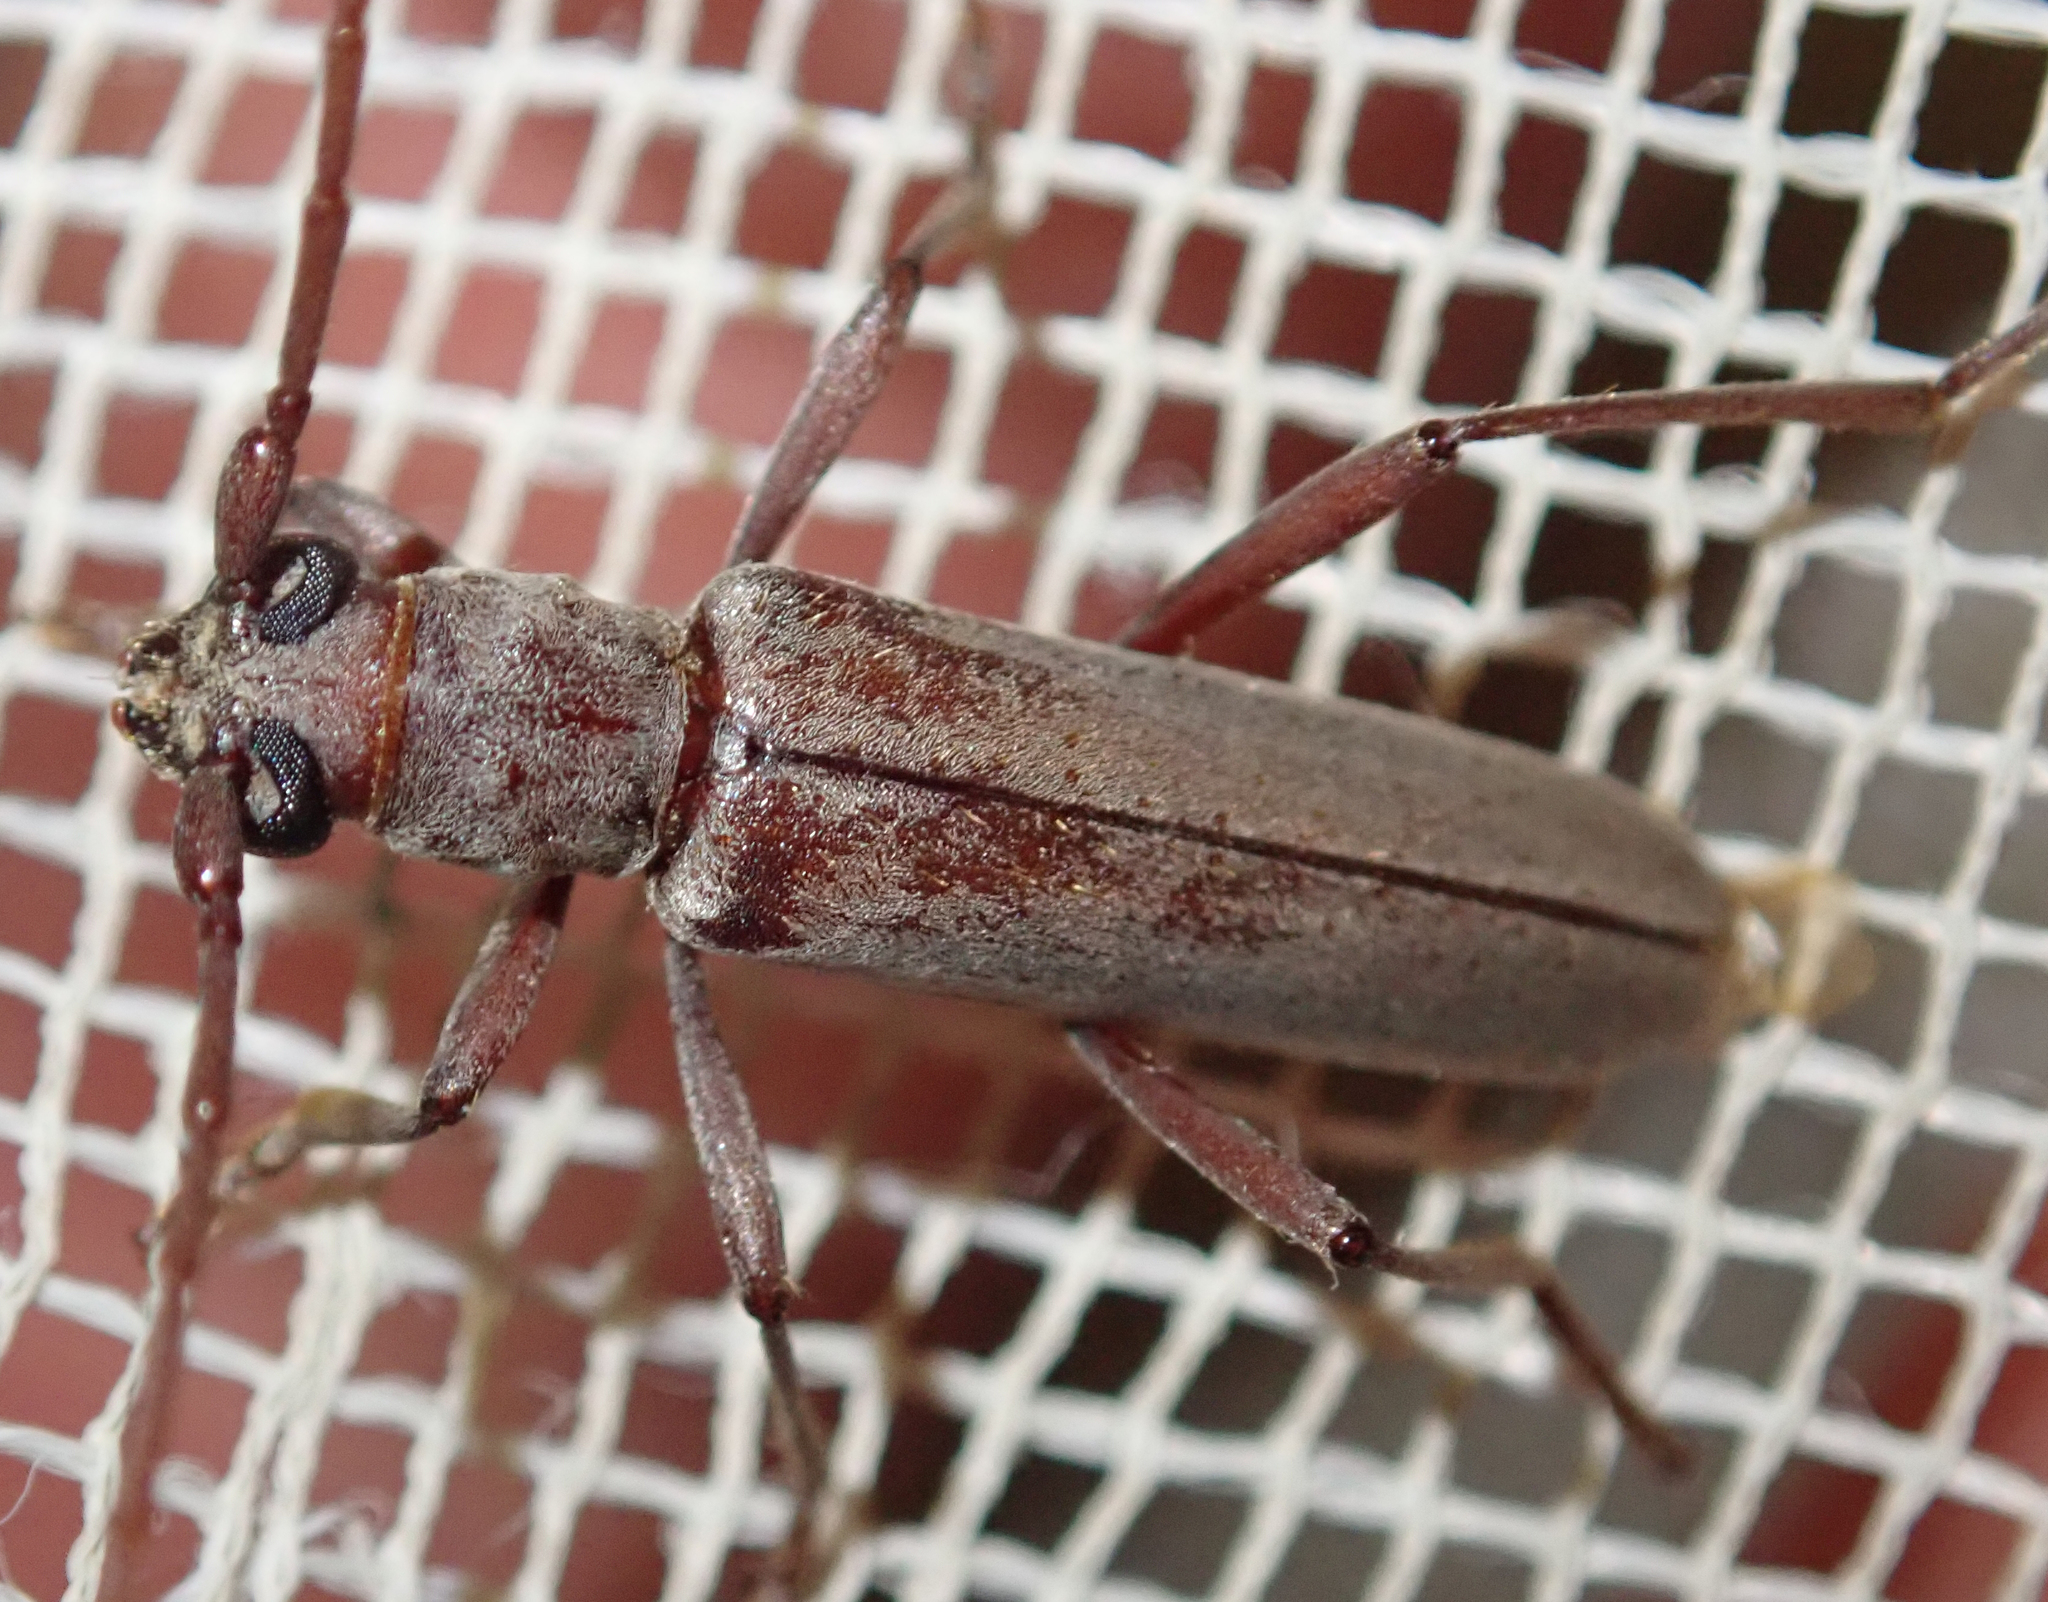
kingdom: Animalia
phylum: Arthropoda
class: Insecta
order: Coleoptera
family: Cerambycidae
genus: Myrsinus
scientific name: Myrsinus modestus
